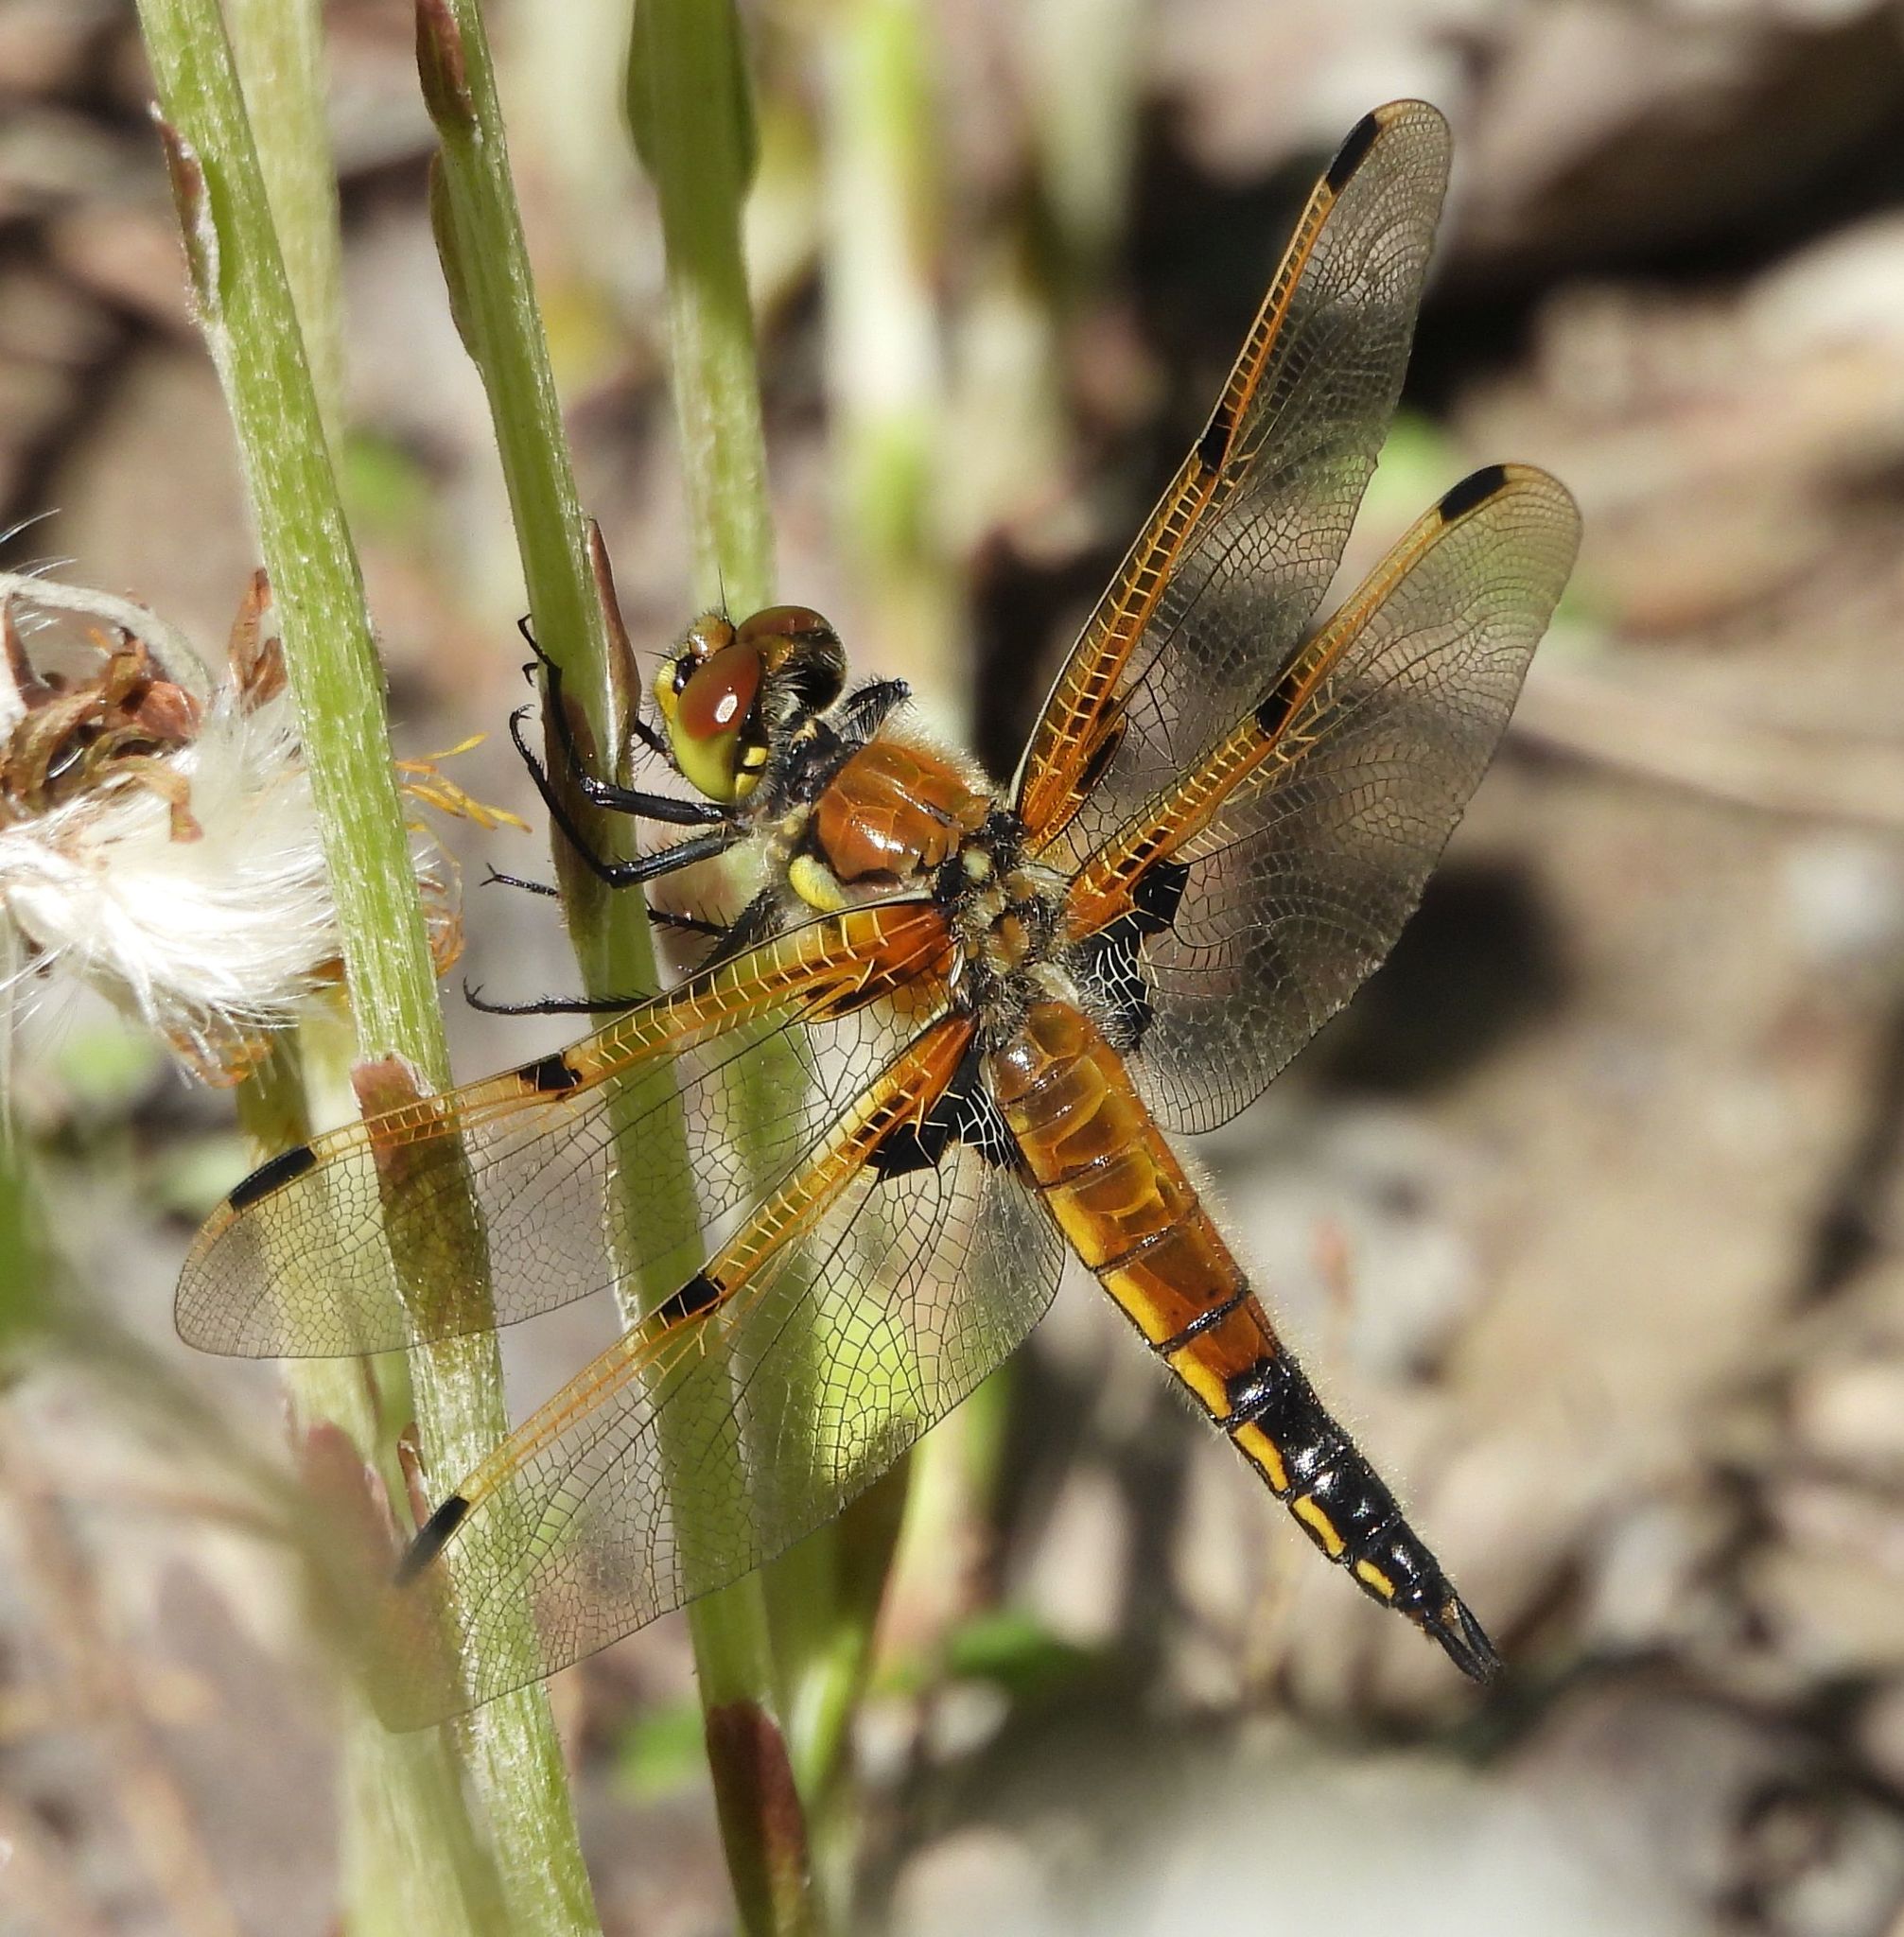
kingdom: Animalia
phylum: Arthropoda
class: Insecta
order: Odonata
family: Libellulidae
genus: Libellula
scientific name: Libellula quadrimaculata
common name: Four-spotted chaser
